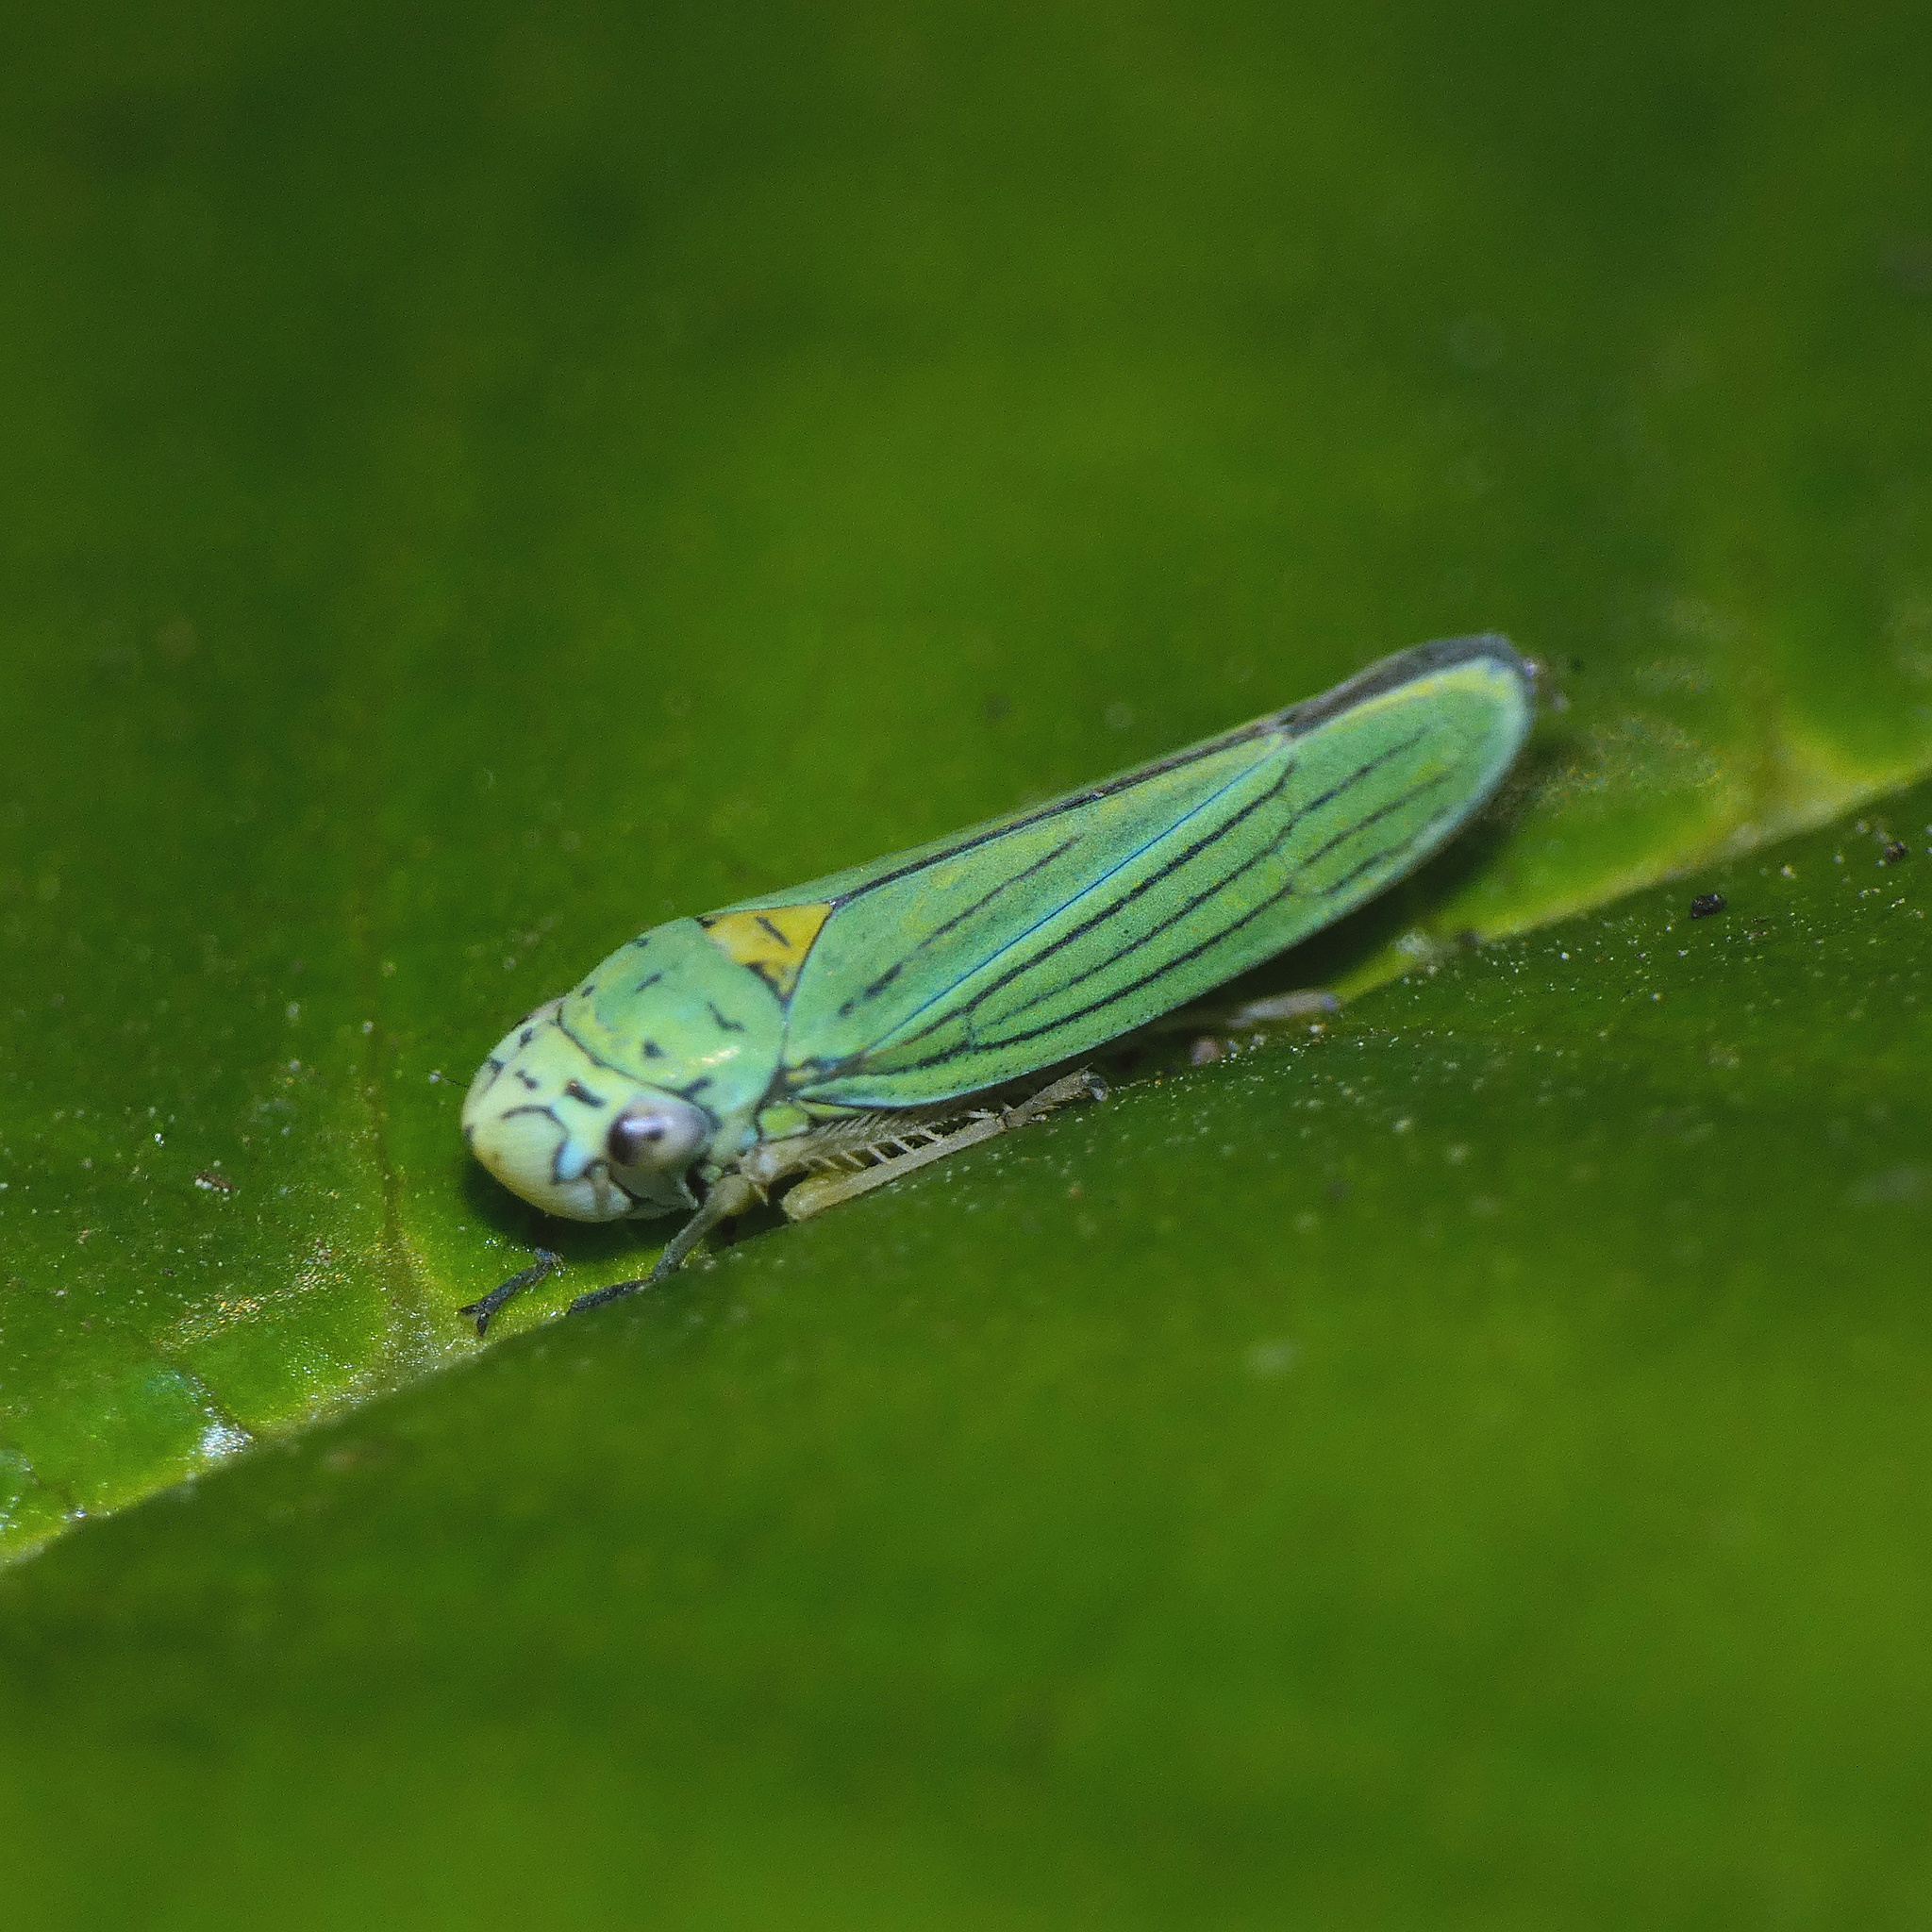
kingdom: Animalia
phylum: Arthropoda
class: Insecta
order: Hemiptera
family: Cicadellidae
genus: Graphocephala
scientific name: Graphocephala atropunctata
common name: Blue-green sharpshooter
